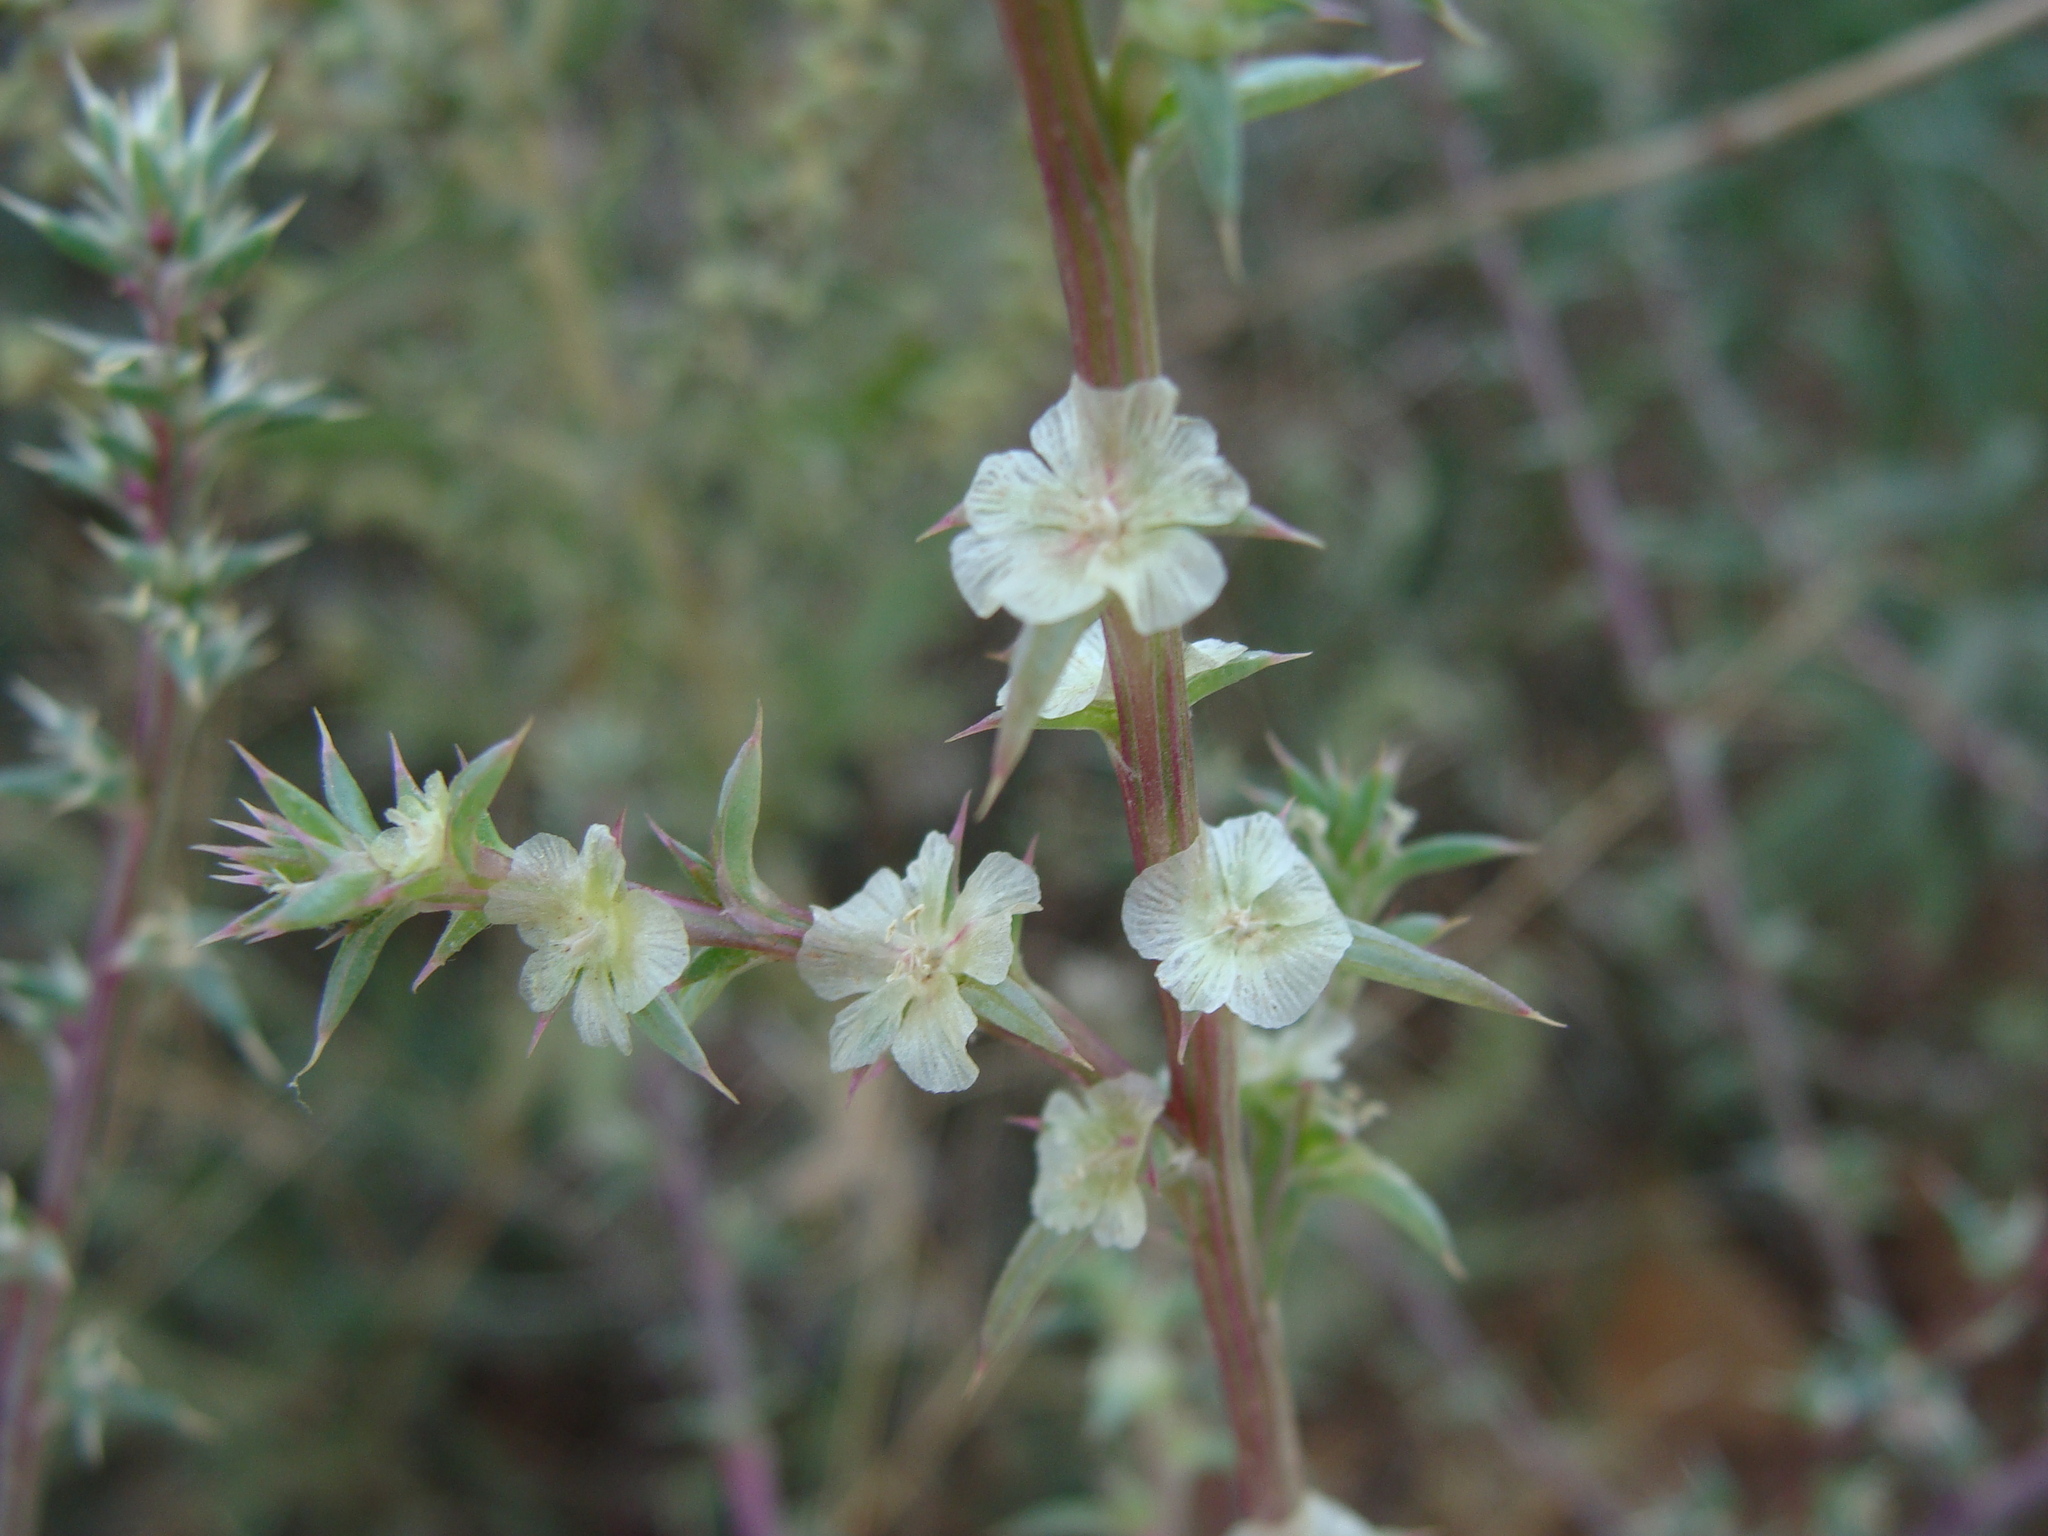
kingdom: Plantae
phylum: Tracheophyta
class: Magnoliopsida
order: Caryophyllales
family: Amaranthaceae
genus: Salsola
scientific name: Salsola tragus
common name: Prickly russian thistle
